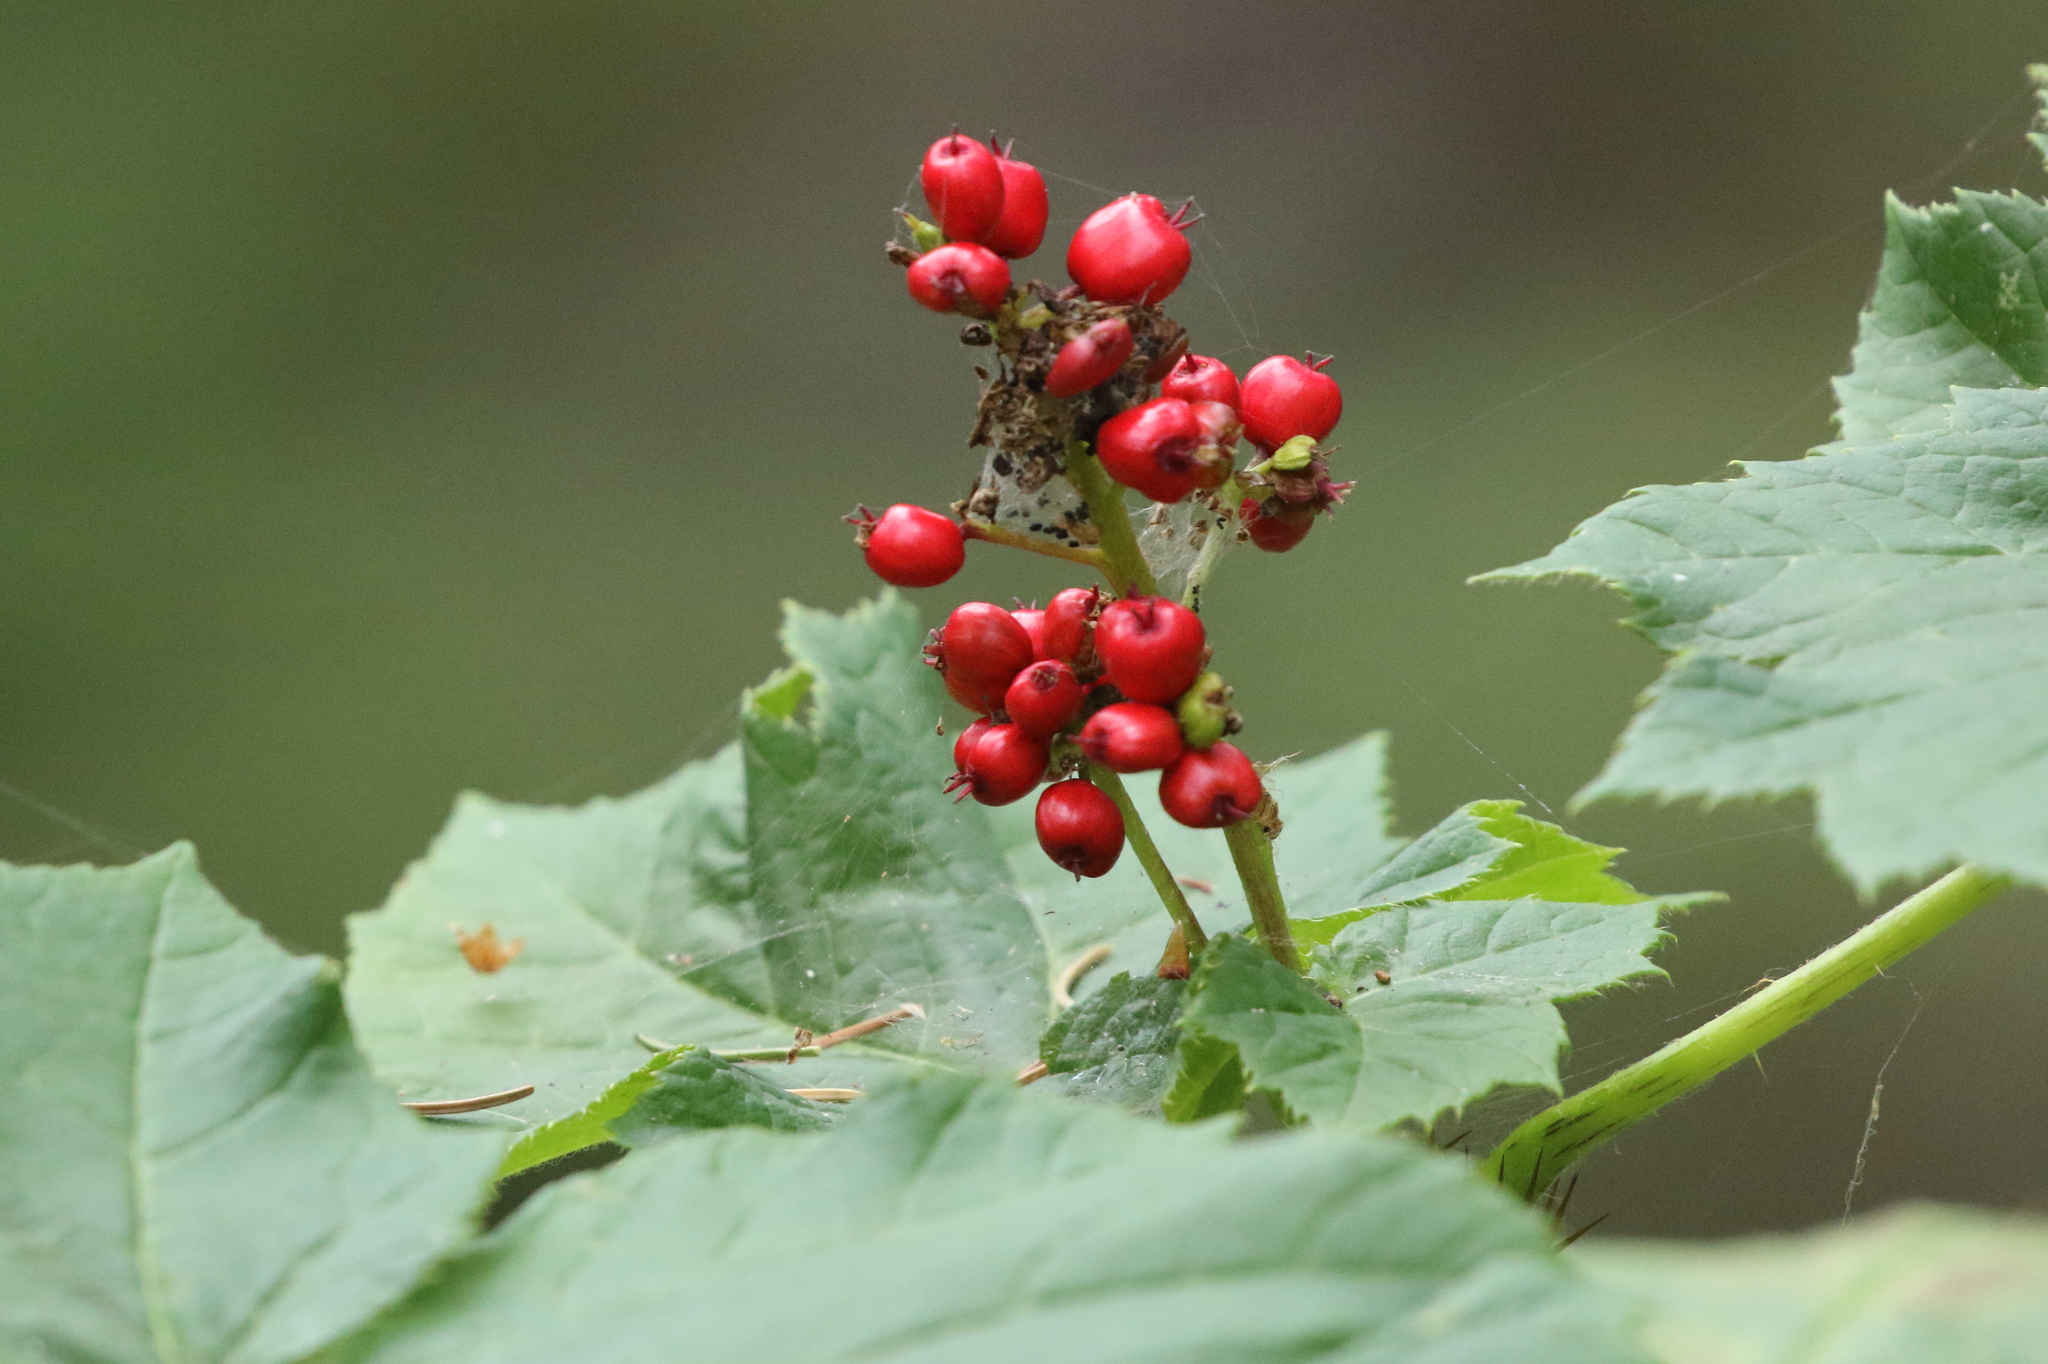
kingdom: Plantae
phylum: Tracheophyta
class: Magnoliopsida
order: Apiales
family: Araliaceae
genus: Oplopanax
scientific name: Oplopanax horridus
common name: Devil's walking-stick
